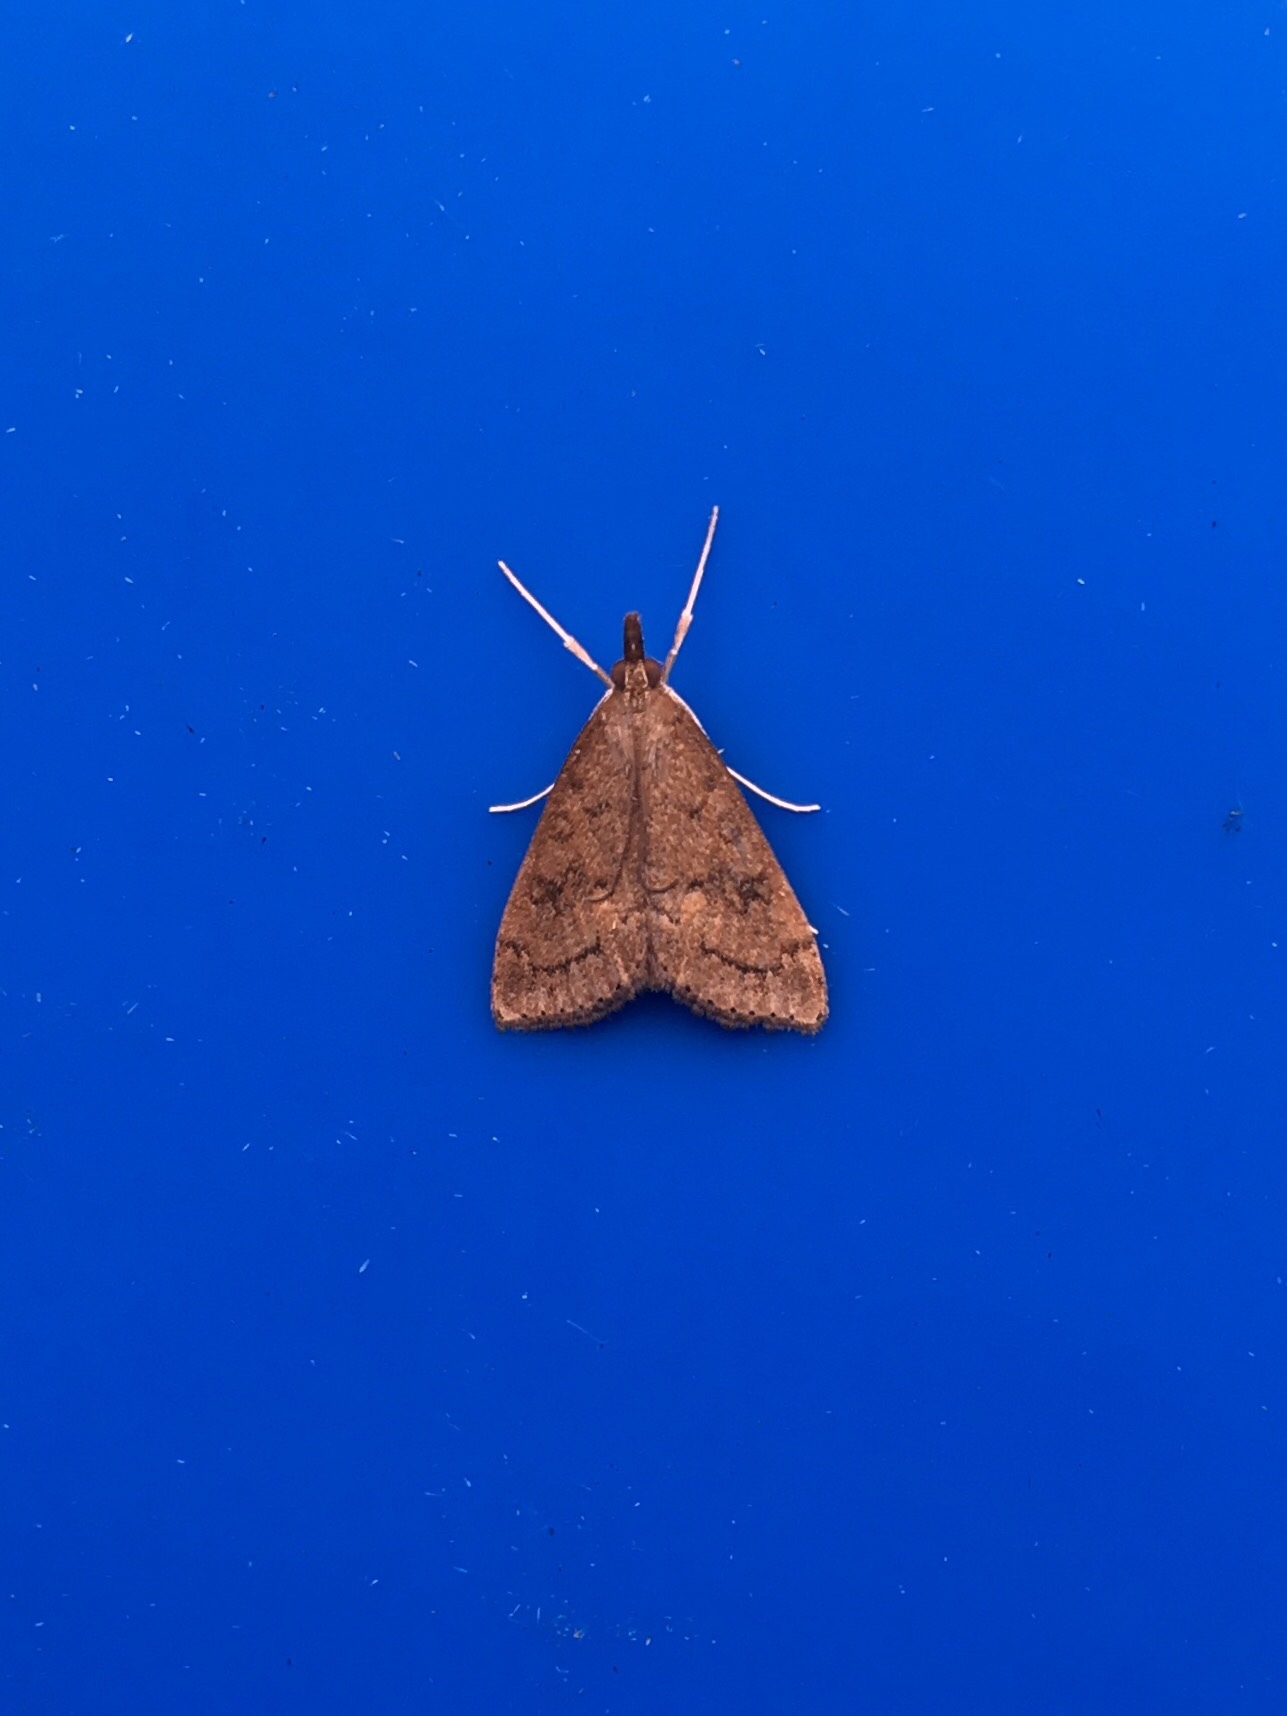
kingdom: Animalia
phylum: Arthropoda
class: Insecta
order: Lepidoptera
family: Crambidae
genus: Udea
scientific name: Udea rubigalis
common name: Celery leaftier moth
